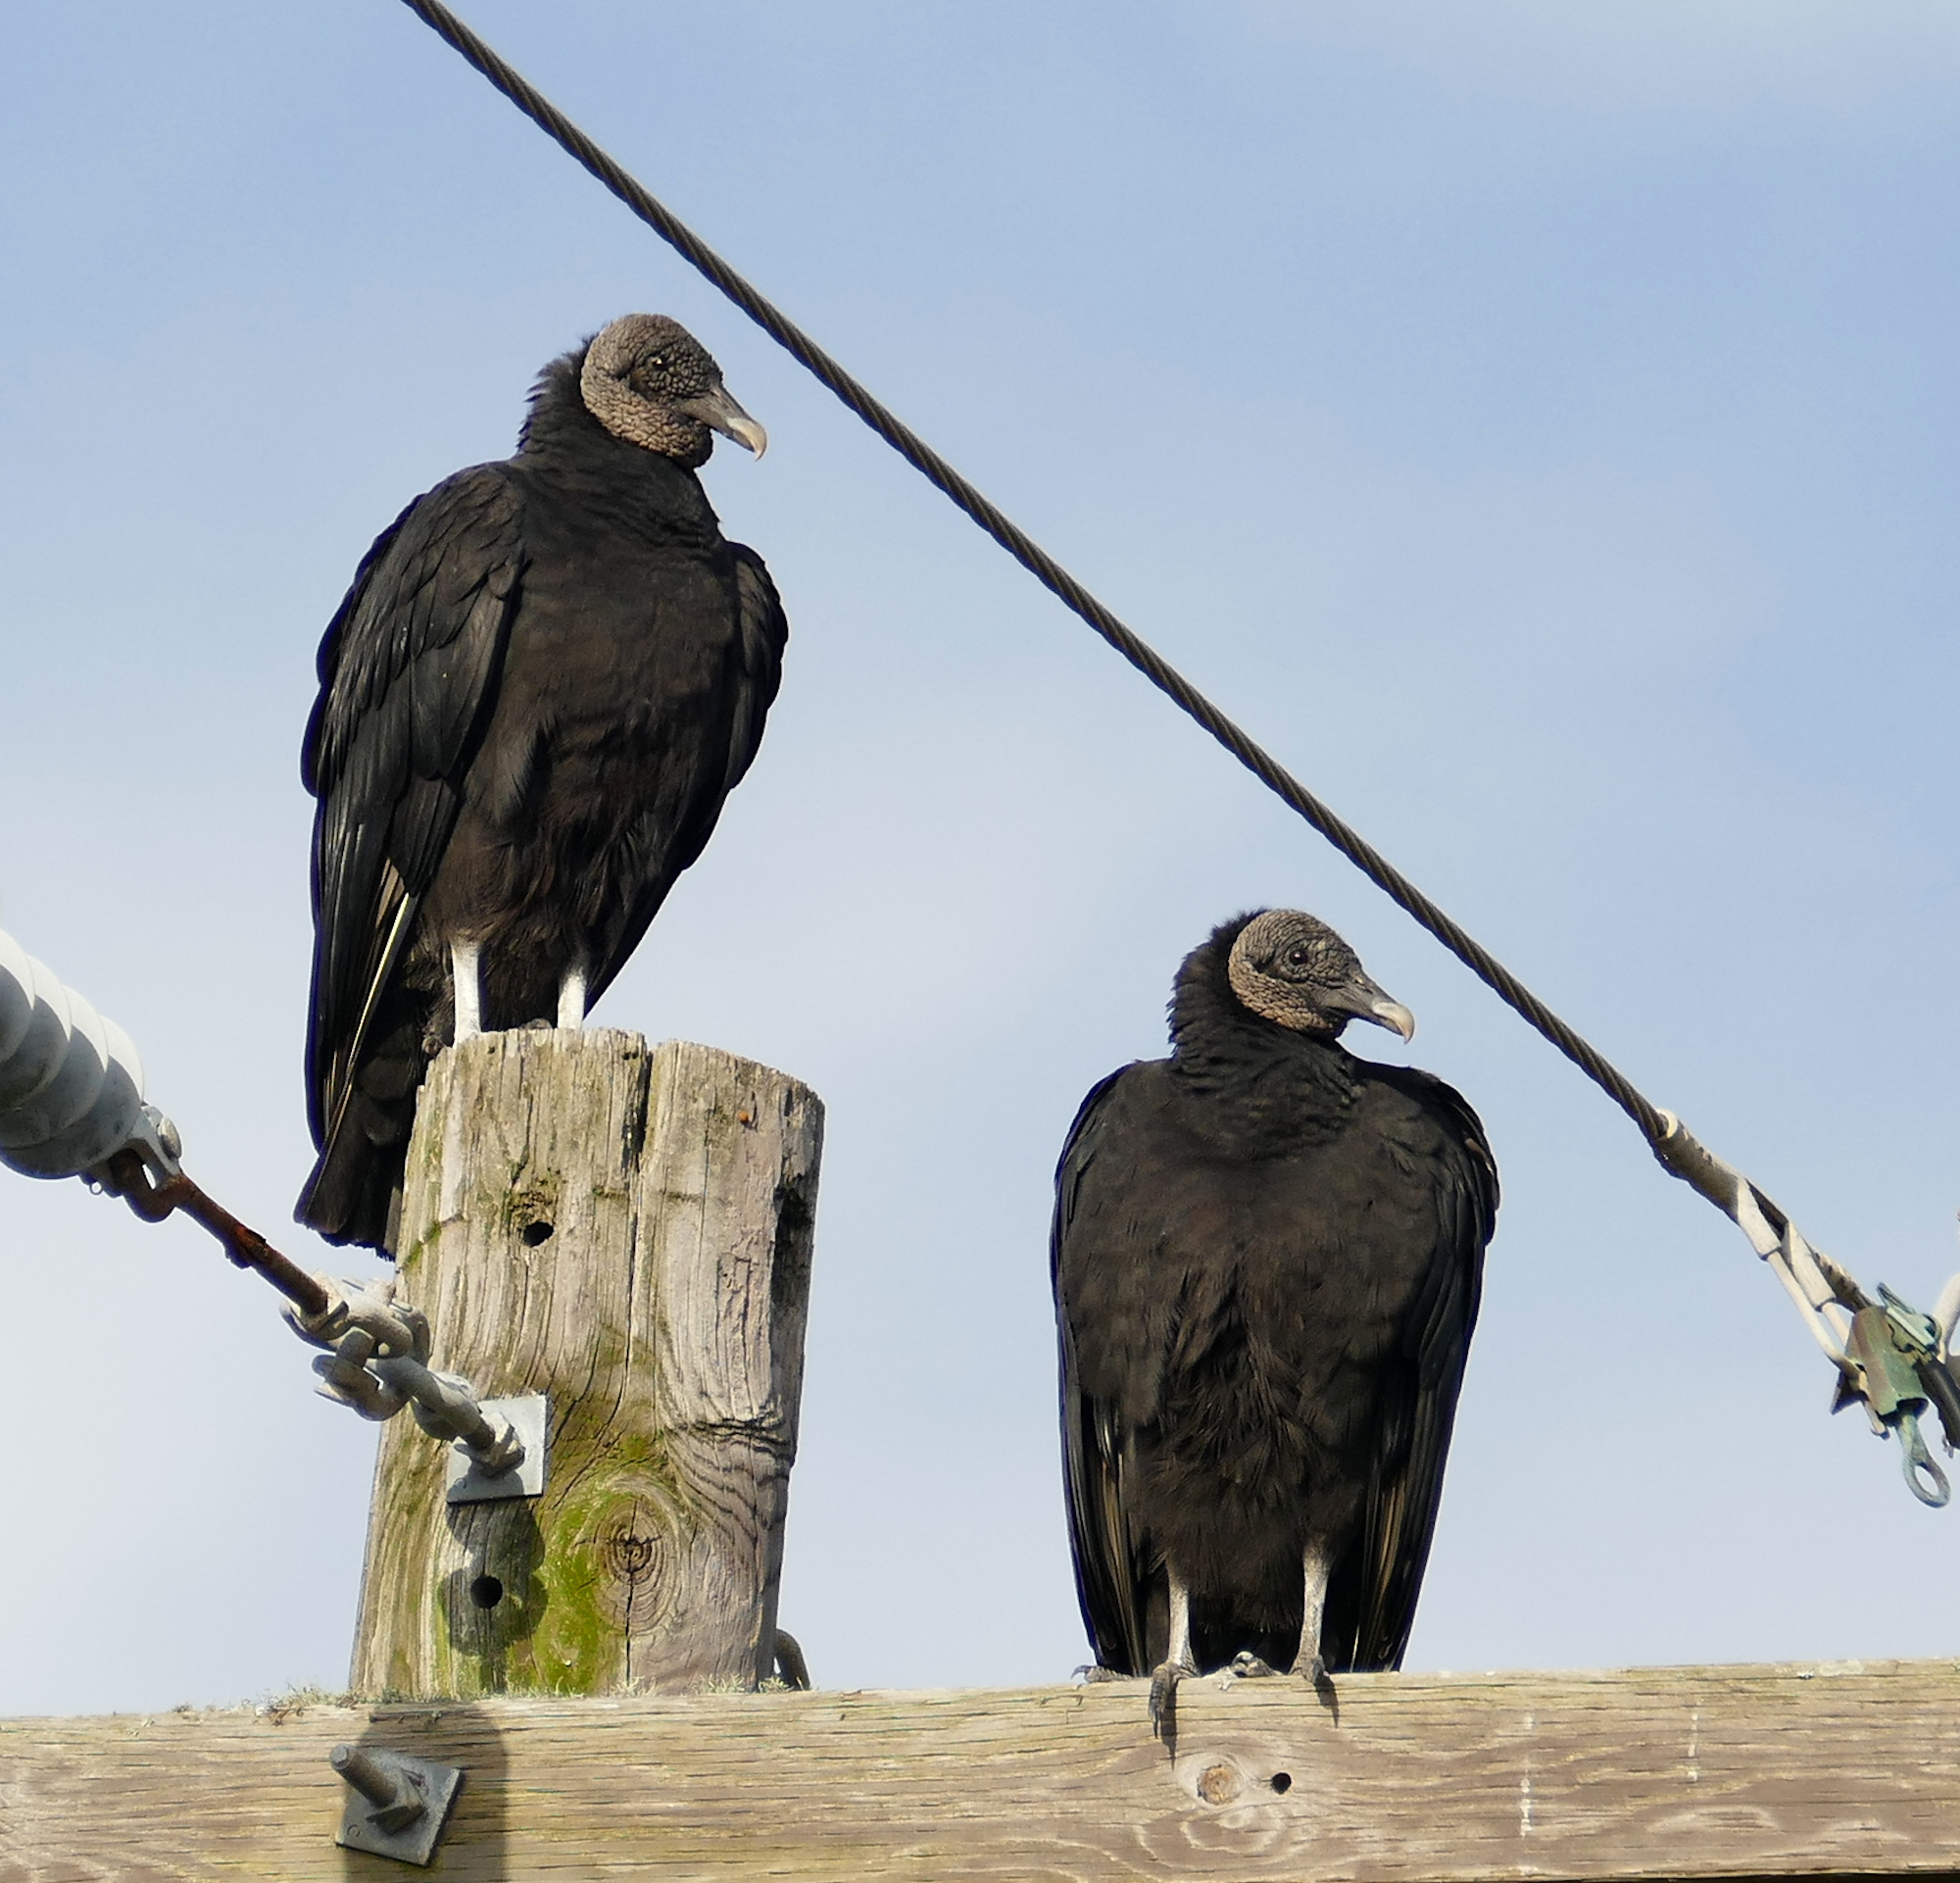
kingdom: Animalia
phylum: Chordata
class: Aves
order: Accipitriformes
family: Cathartidae
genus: Coragyps
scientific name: Coragyps atratus
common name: Black vulture
